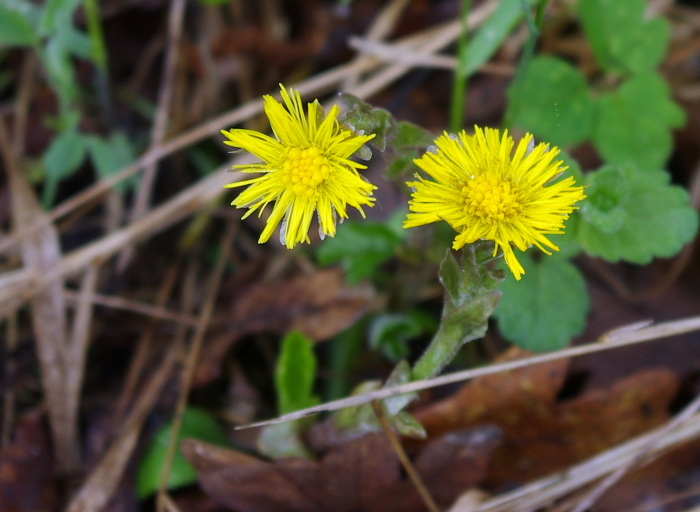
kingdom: Plantae
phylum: Tracheophyta
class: Magnoliopsida
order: Asterales
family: Asteraceae
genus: Tussilago
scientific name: Tussilago farfara
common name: Coltsfoot
